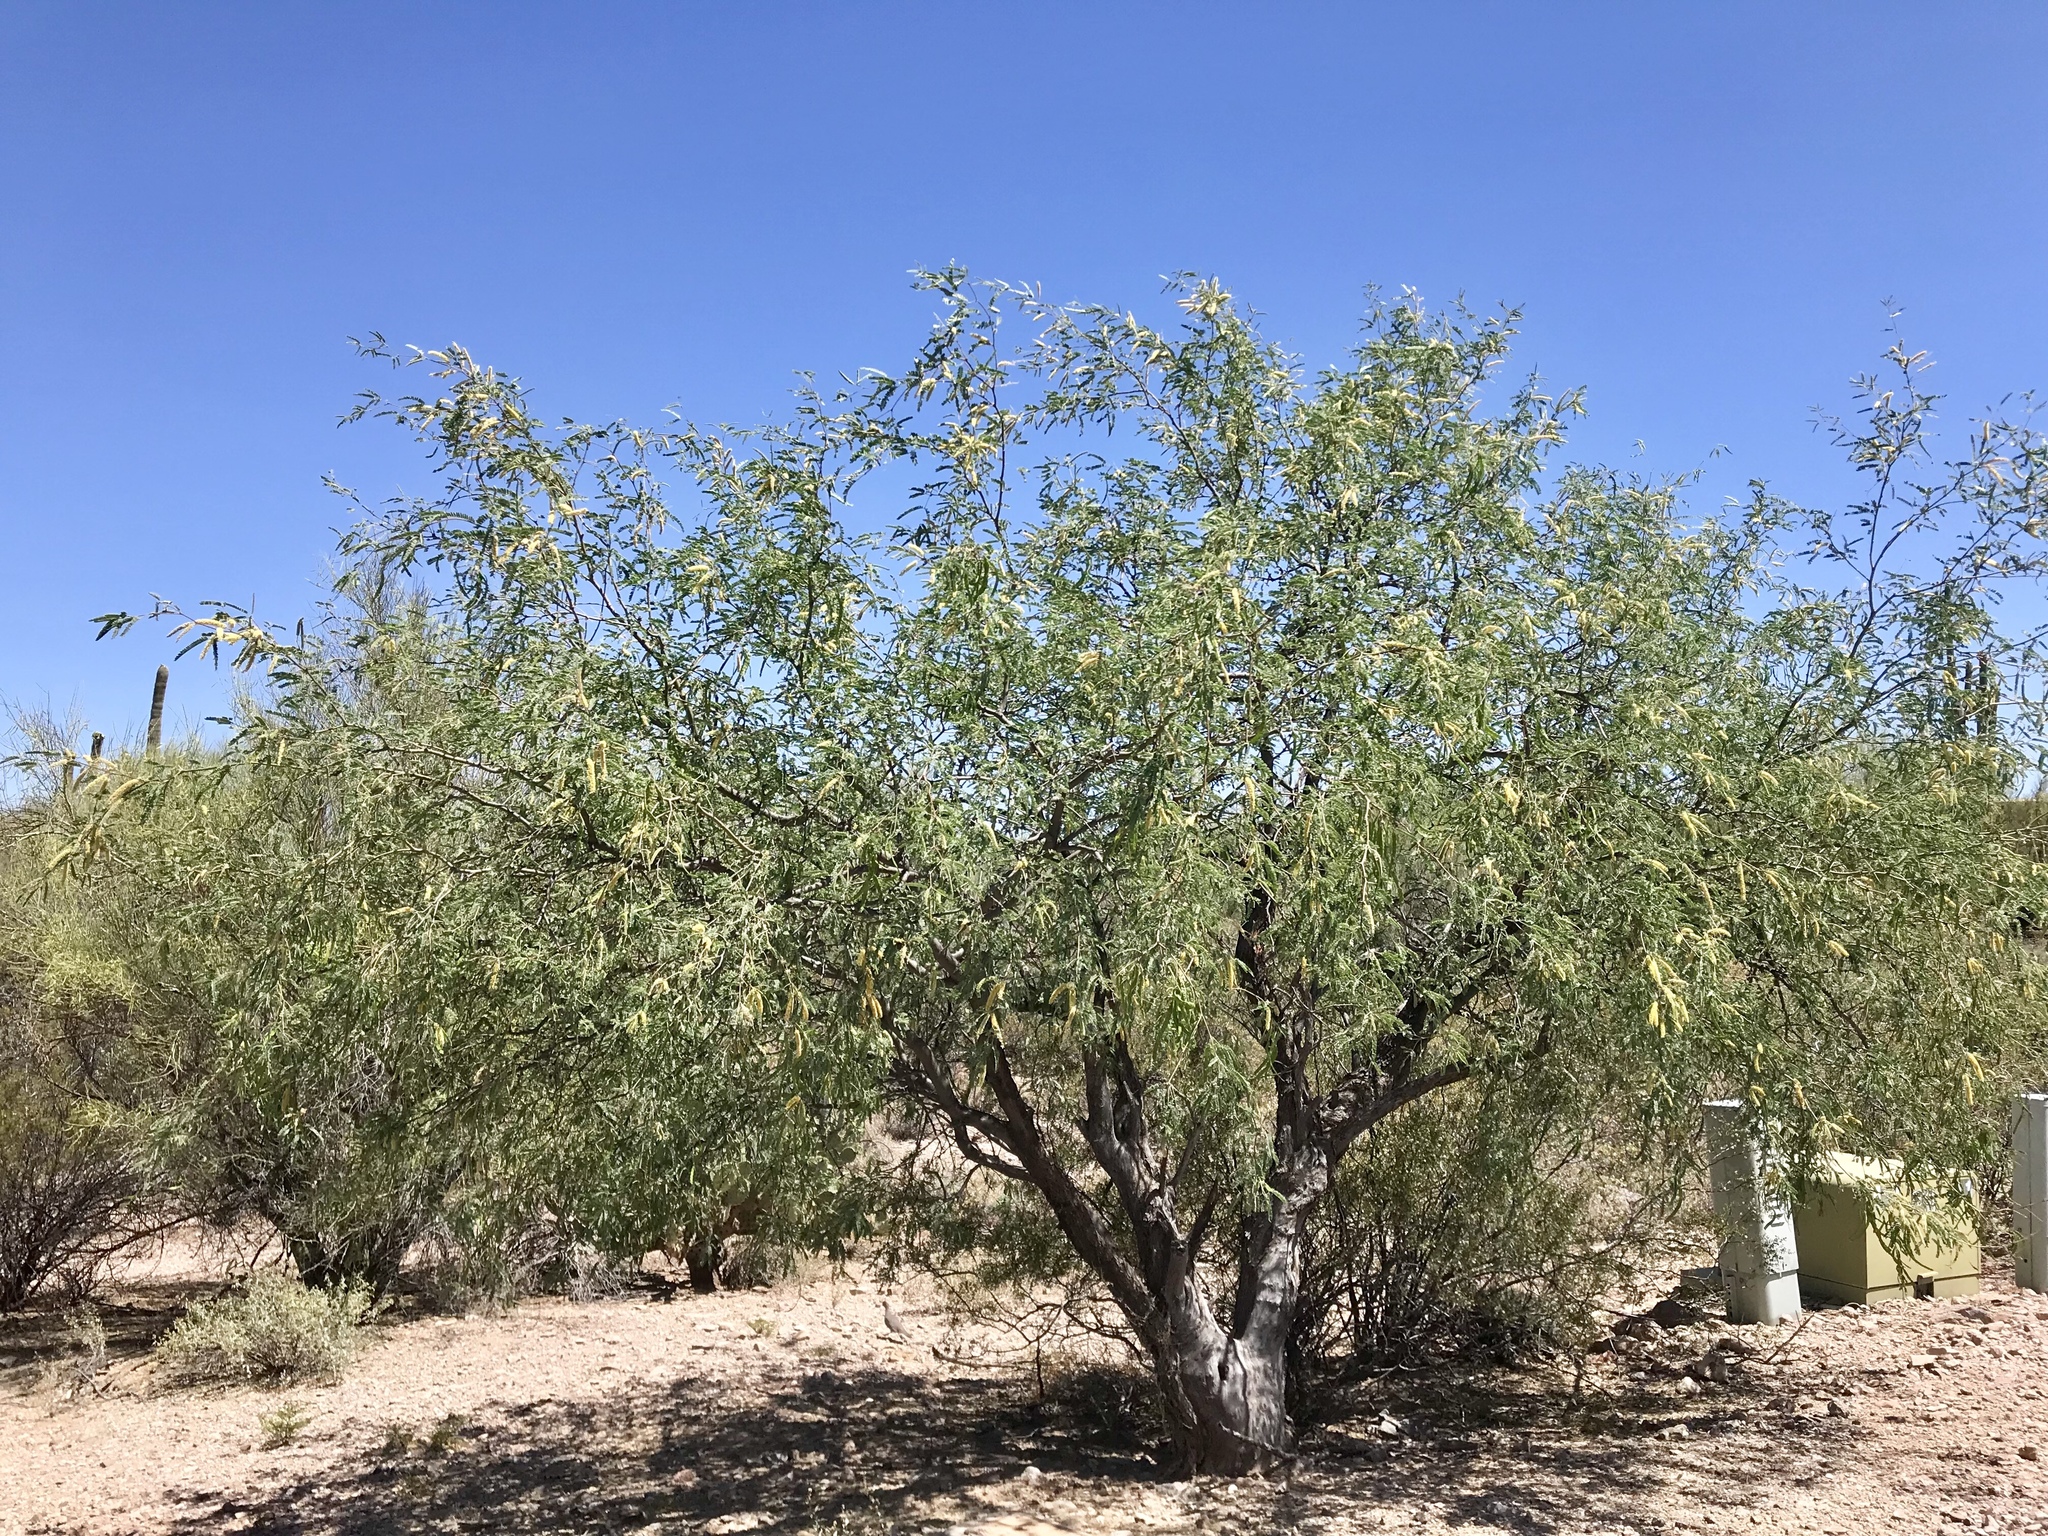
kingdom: Plantae
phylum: Tracheophyta
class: Magnoliopsida
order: Fabales
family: Fabaceae
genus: Prosopis
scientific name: Prosopis velutina
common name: Velvet mesquite
